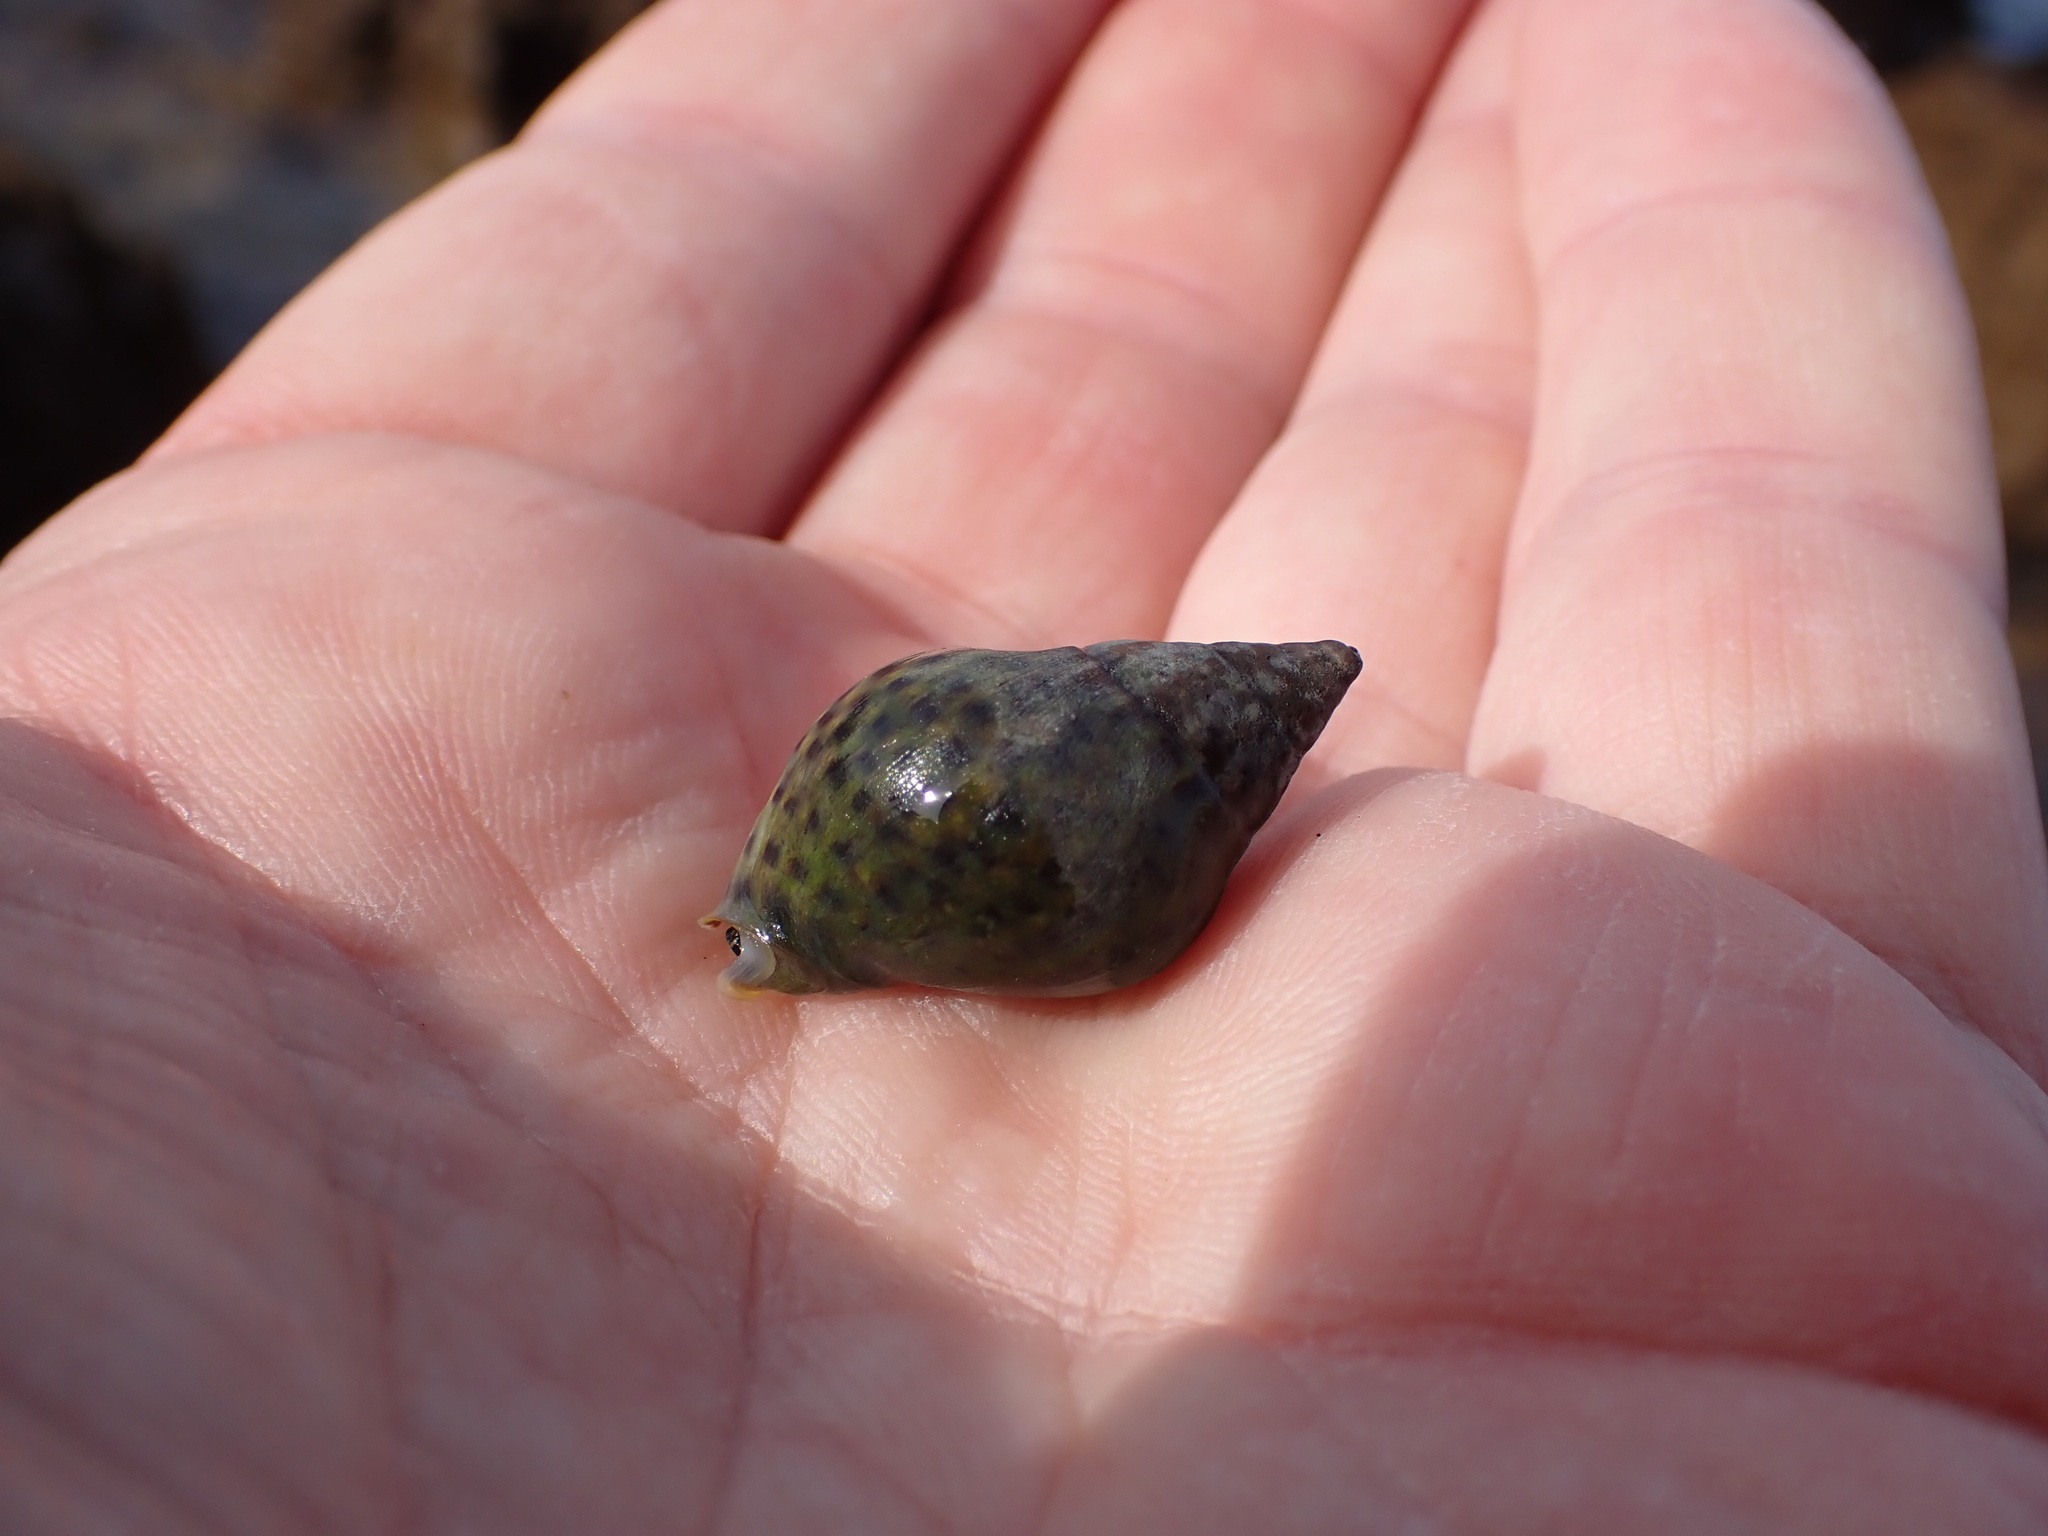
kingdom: Animalia
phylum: Mollusca
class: Gastropoda
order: Neogastropoda
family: Cominellidae
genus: Cominella
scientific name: Cominella maculosa
